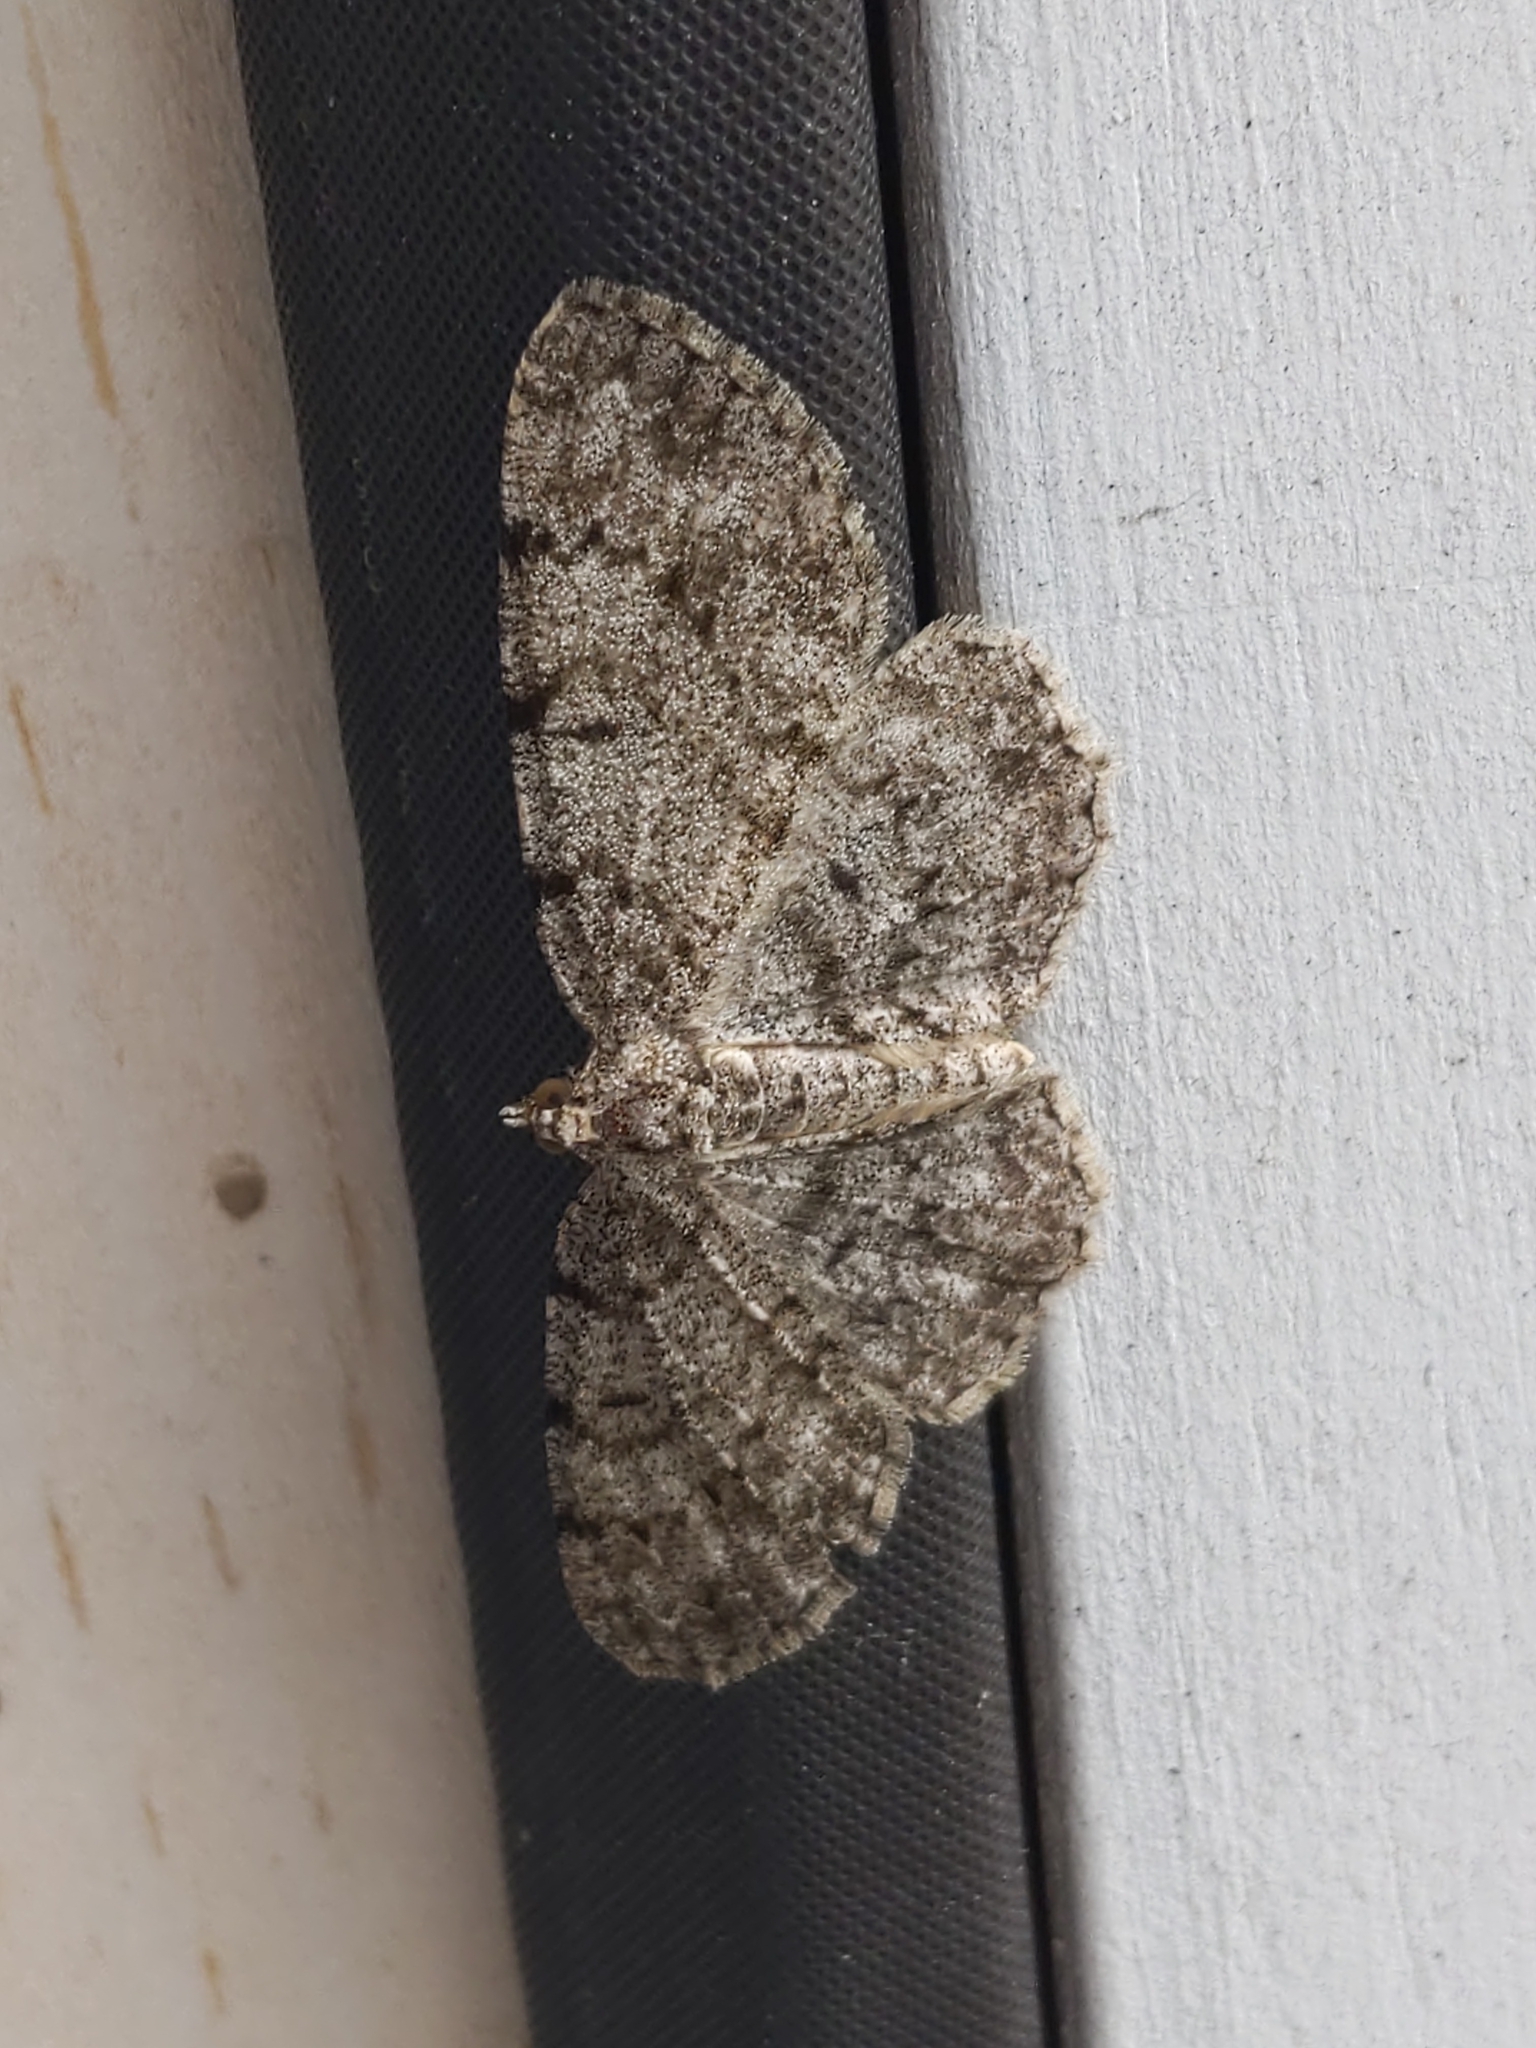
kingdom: Animalia
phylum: Arthropoda
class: Insecta
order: Lepidoptera
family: Geometridae
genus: Protoboarmia
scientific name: Protoboarmia porcelaria
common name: Porcelain gray
